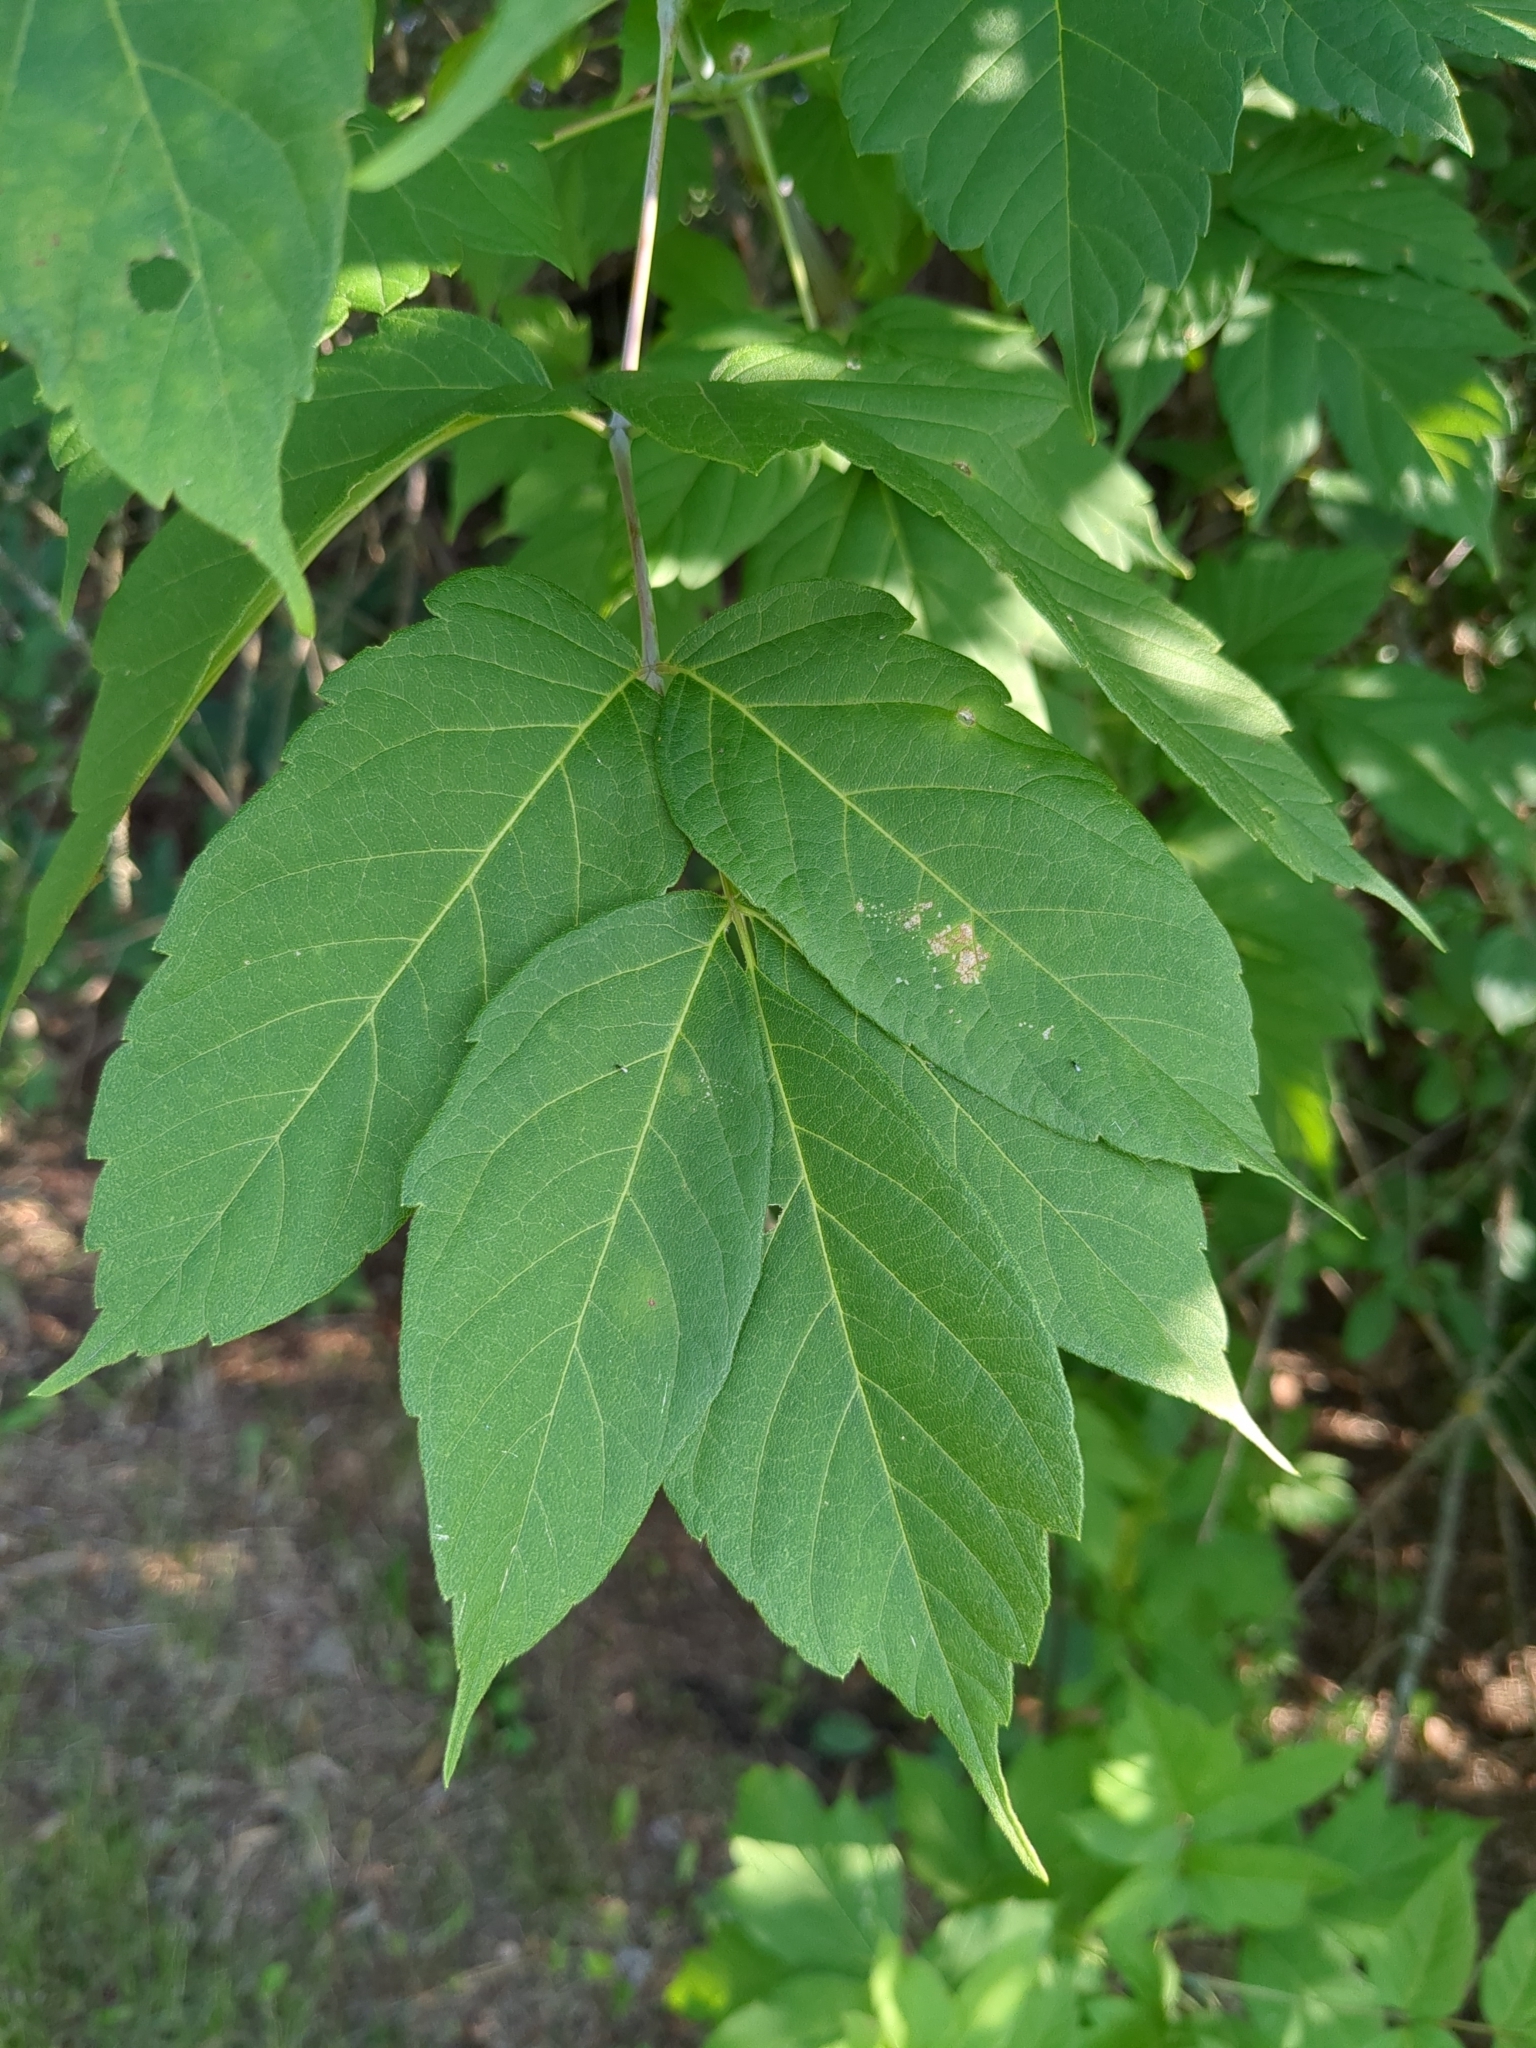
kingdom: Plantae
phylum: Tracheophyta
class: Magnoliopsida
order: Sapindales
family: Sapindaceae
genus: Acer
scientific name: Acer negundo
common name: Ashleaf maple
